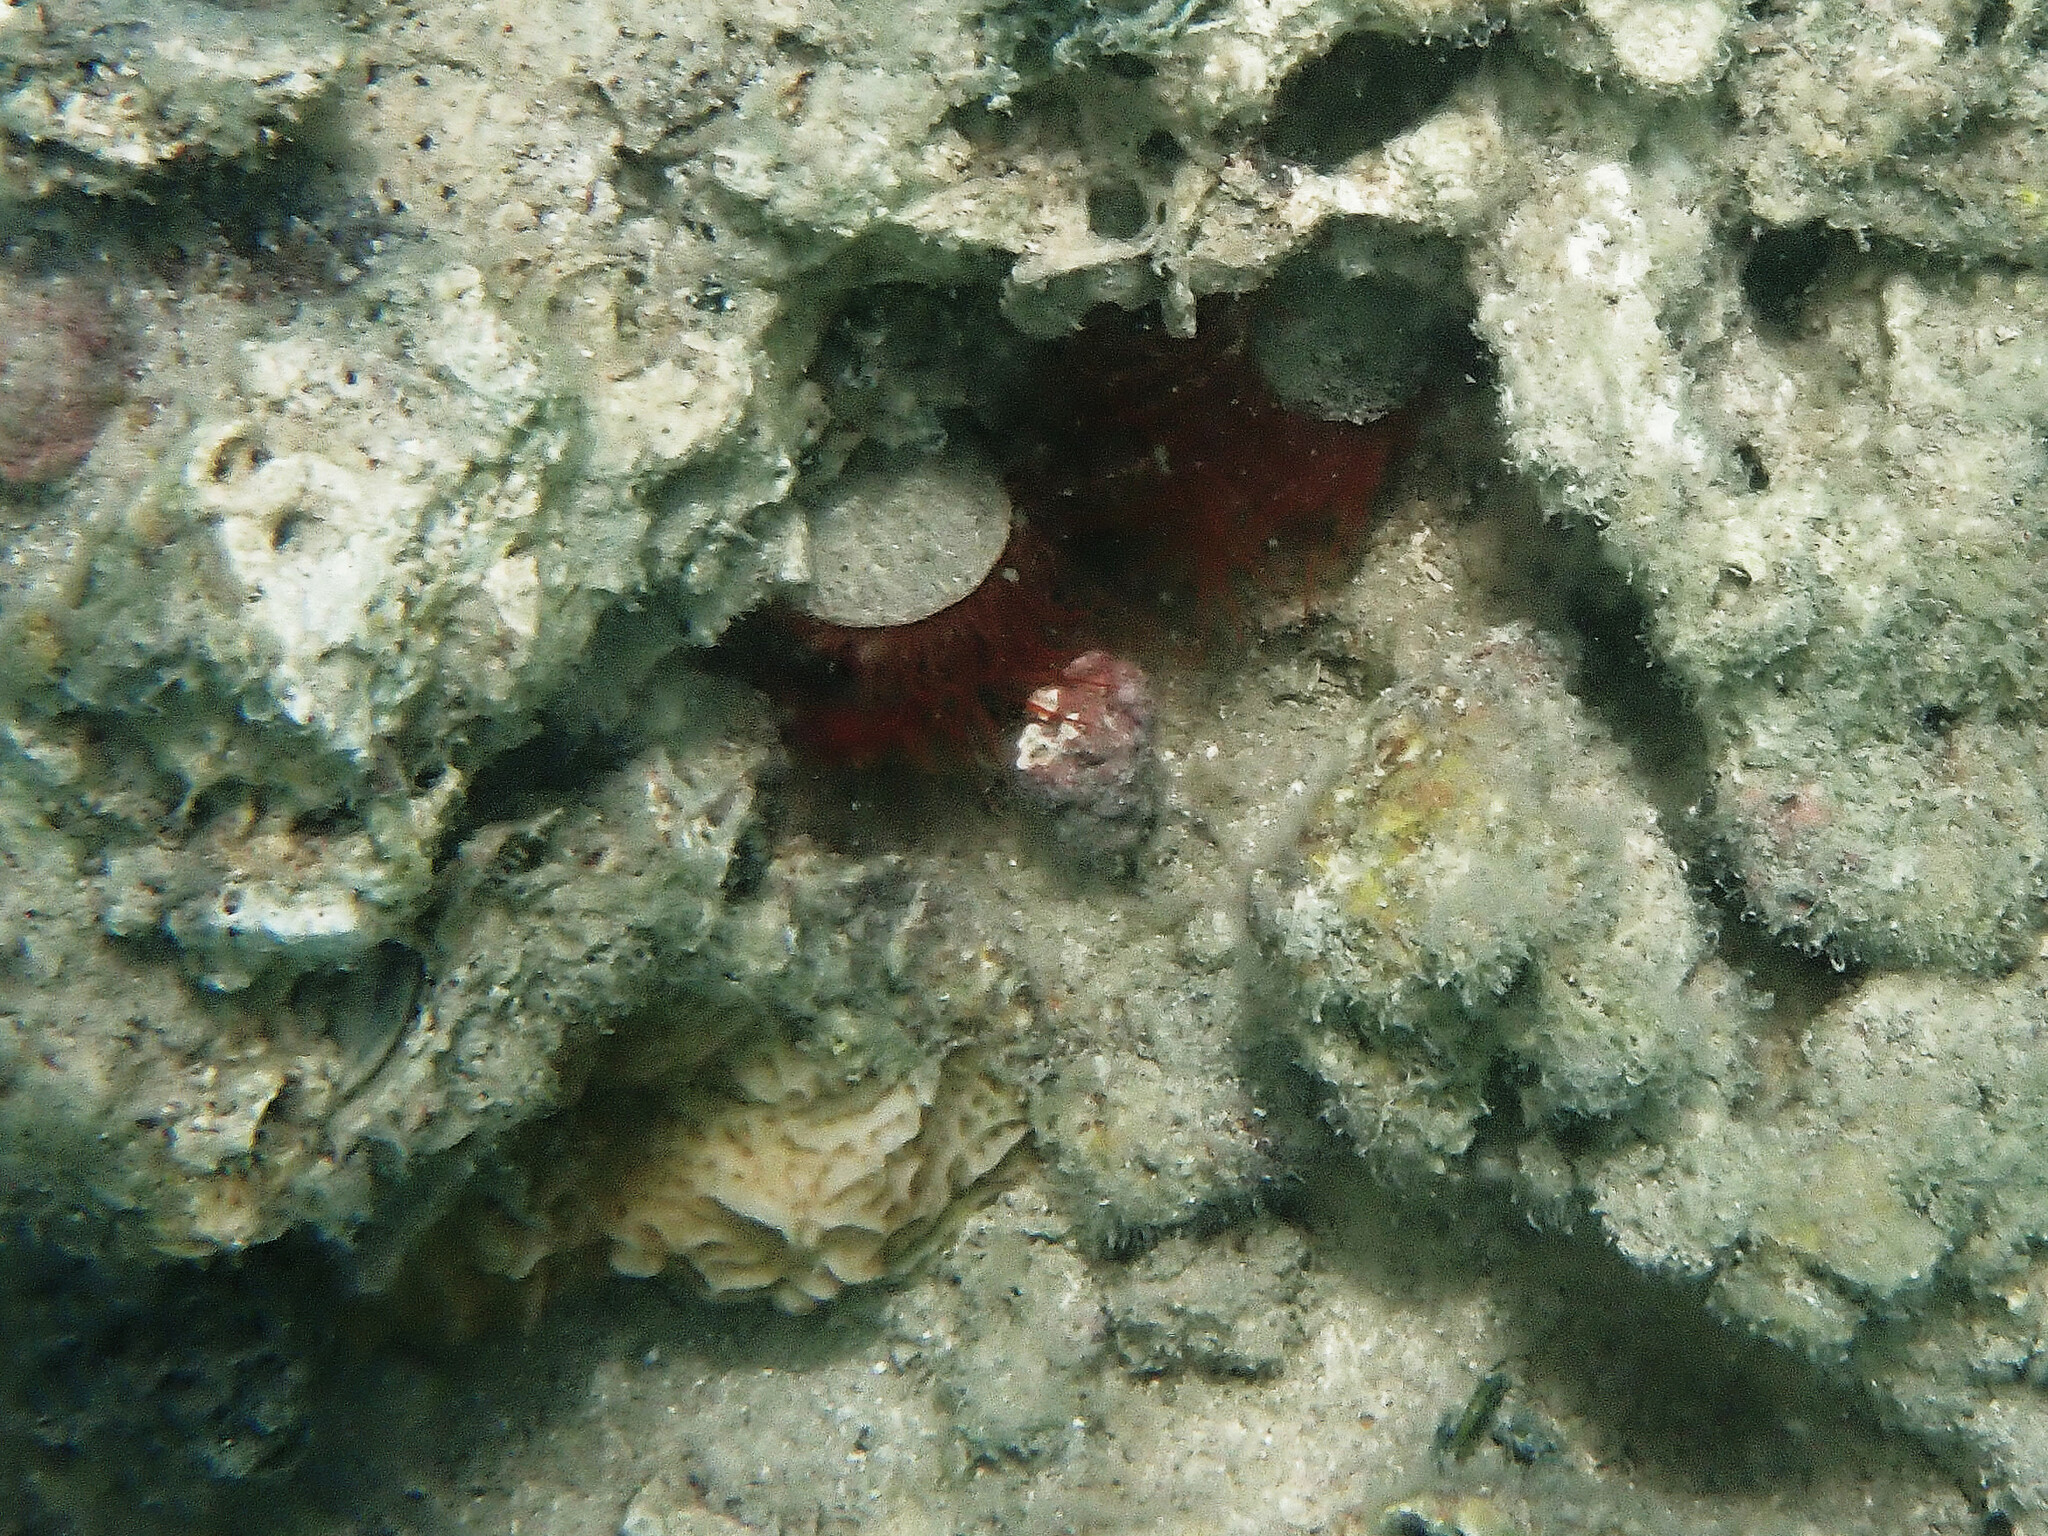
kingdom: Animalia
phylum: Mollusca
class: Bivalvia
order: Limida
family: Limidae
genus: Ctenoides
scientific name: Ctenoides scaber
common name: Rough fileclam
